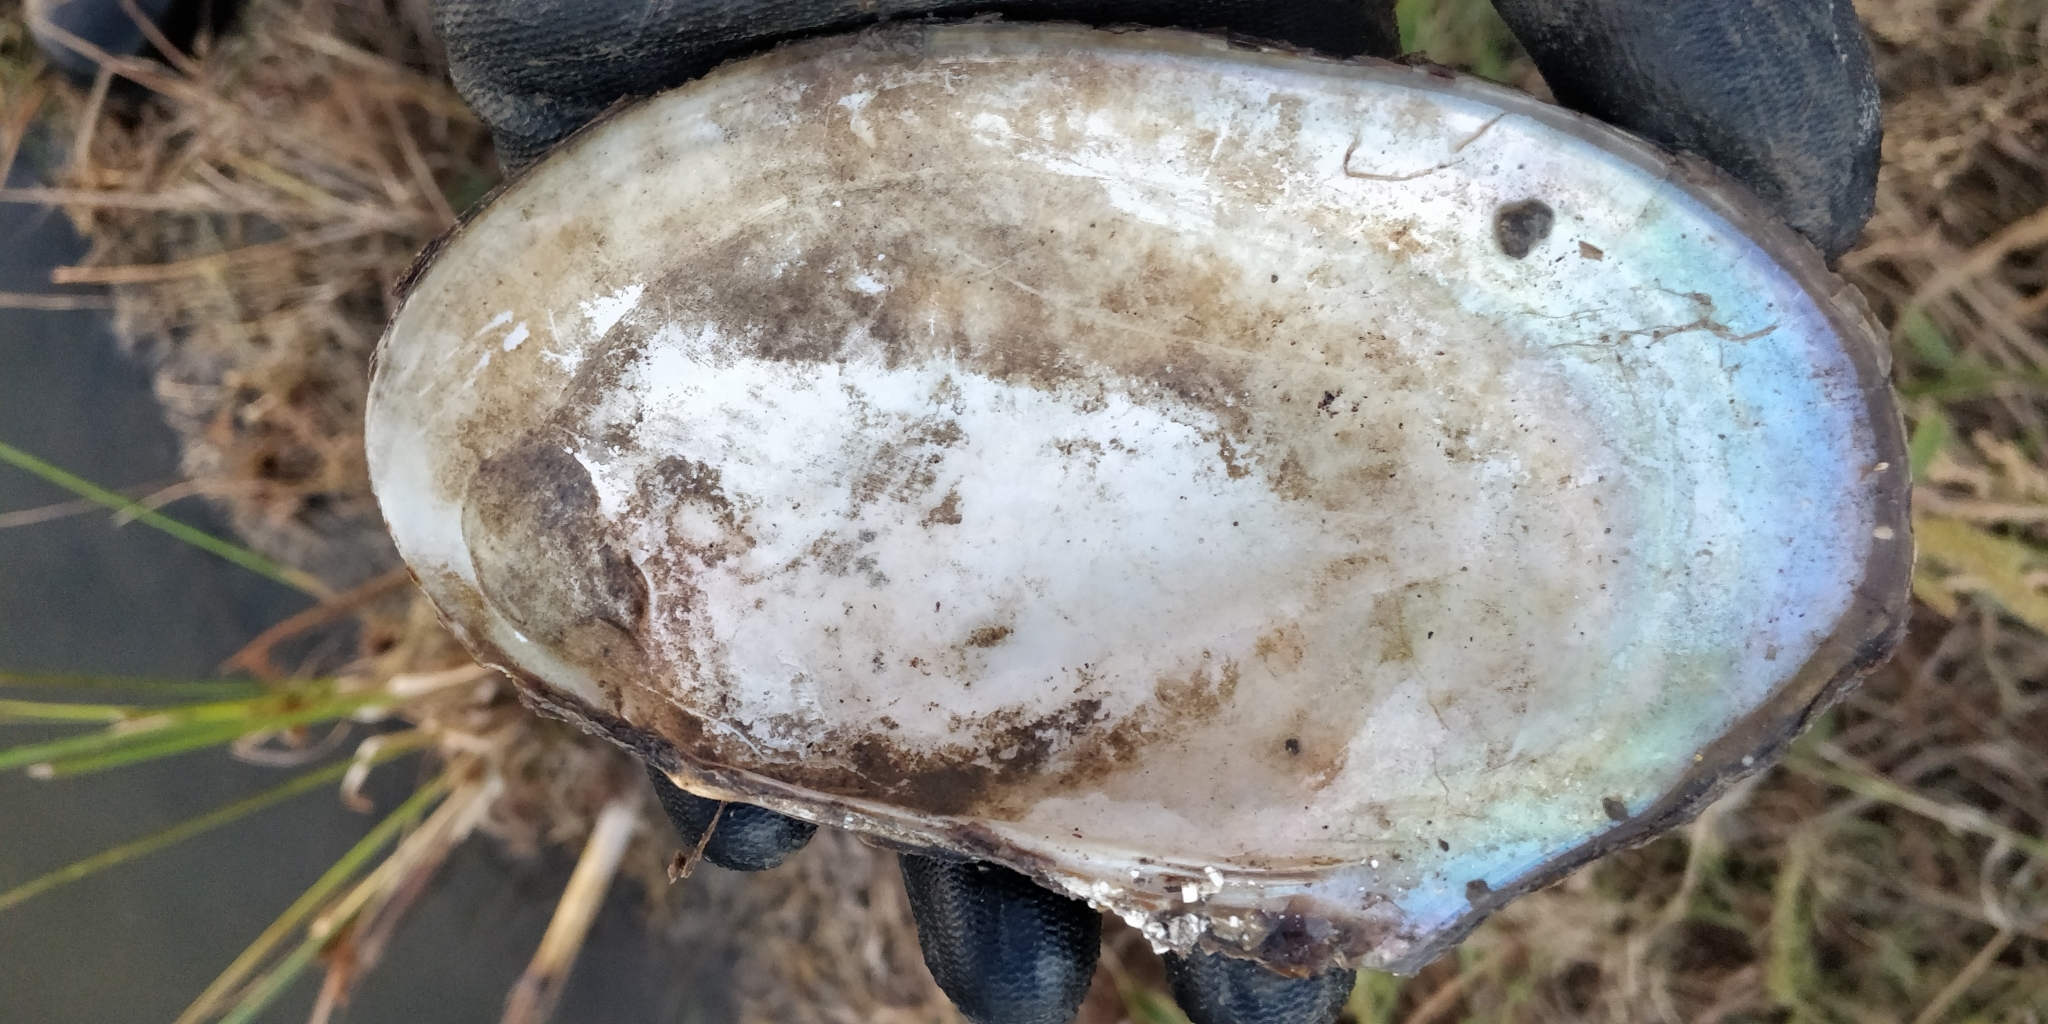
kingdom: Animalia
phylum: Mollusca
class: Bivalvia
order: Unionida
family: Unionidae
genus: Potamilus
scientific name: Potamilus fragilis
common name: Fragile papershell
